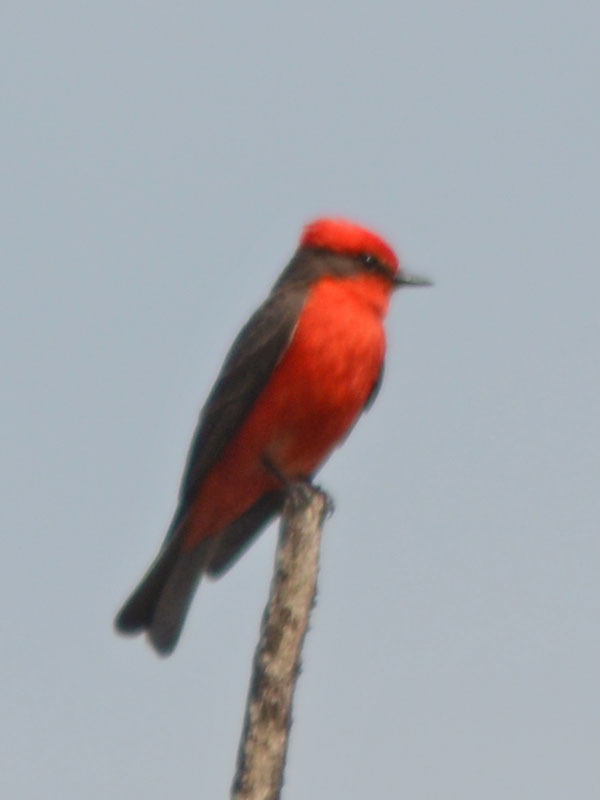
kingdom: Animalia
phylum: Chordata
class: Aves
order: Passeriformes
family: Tyrannidae
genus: Pyrocephalus
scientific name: Pyrocephalus rubinus
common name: Vermilion flycatcher
